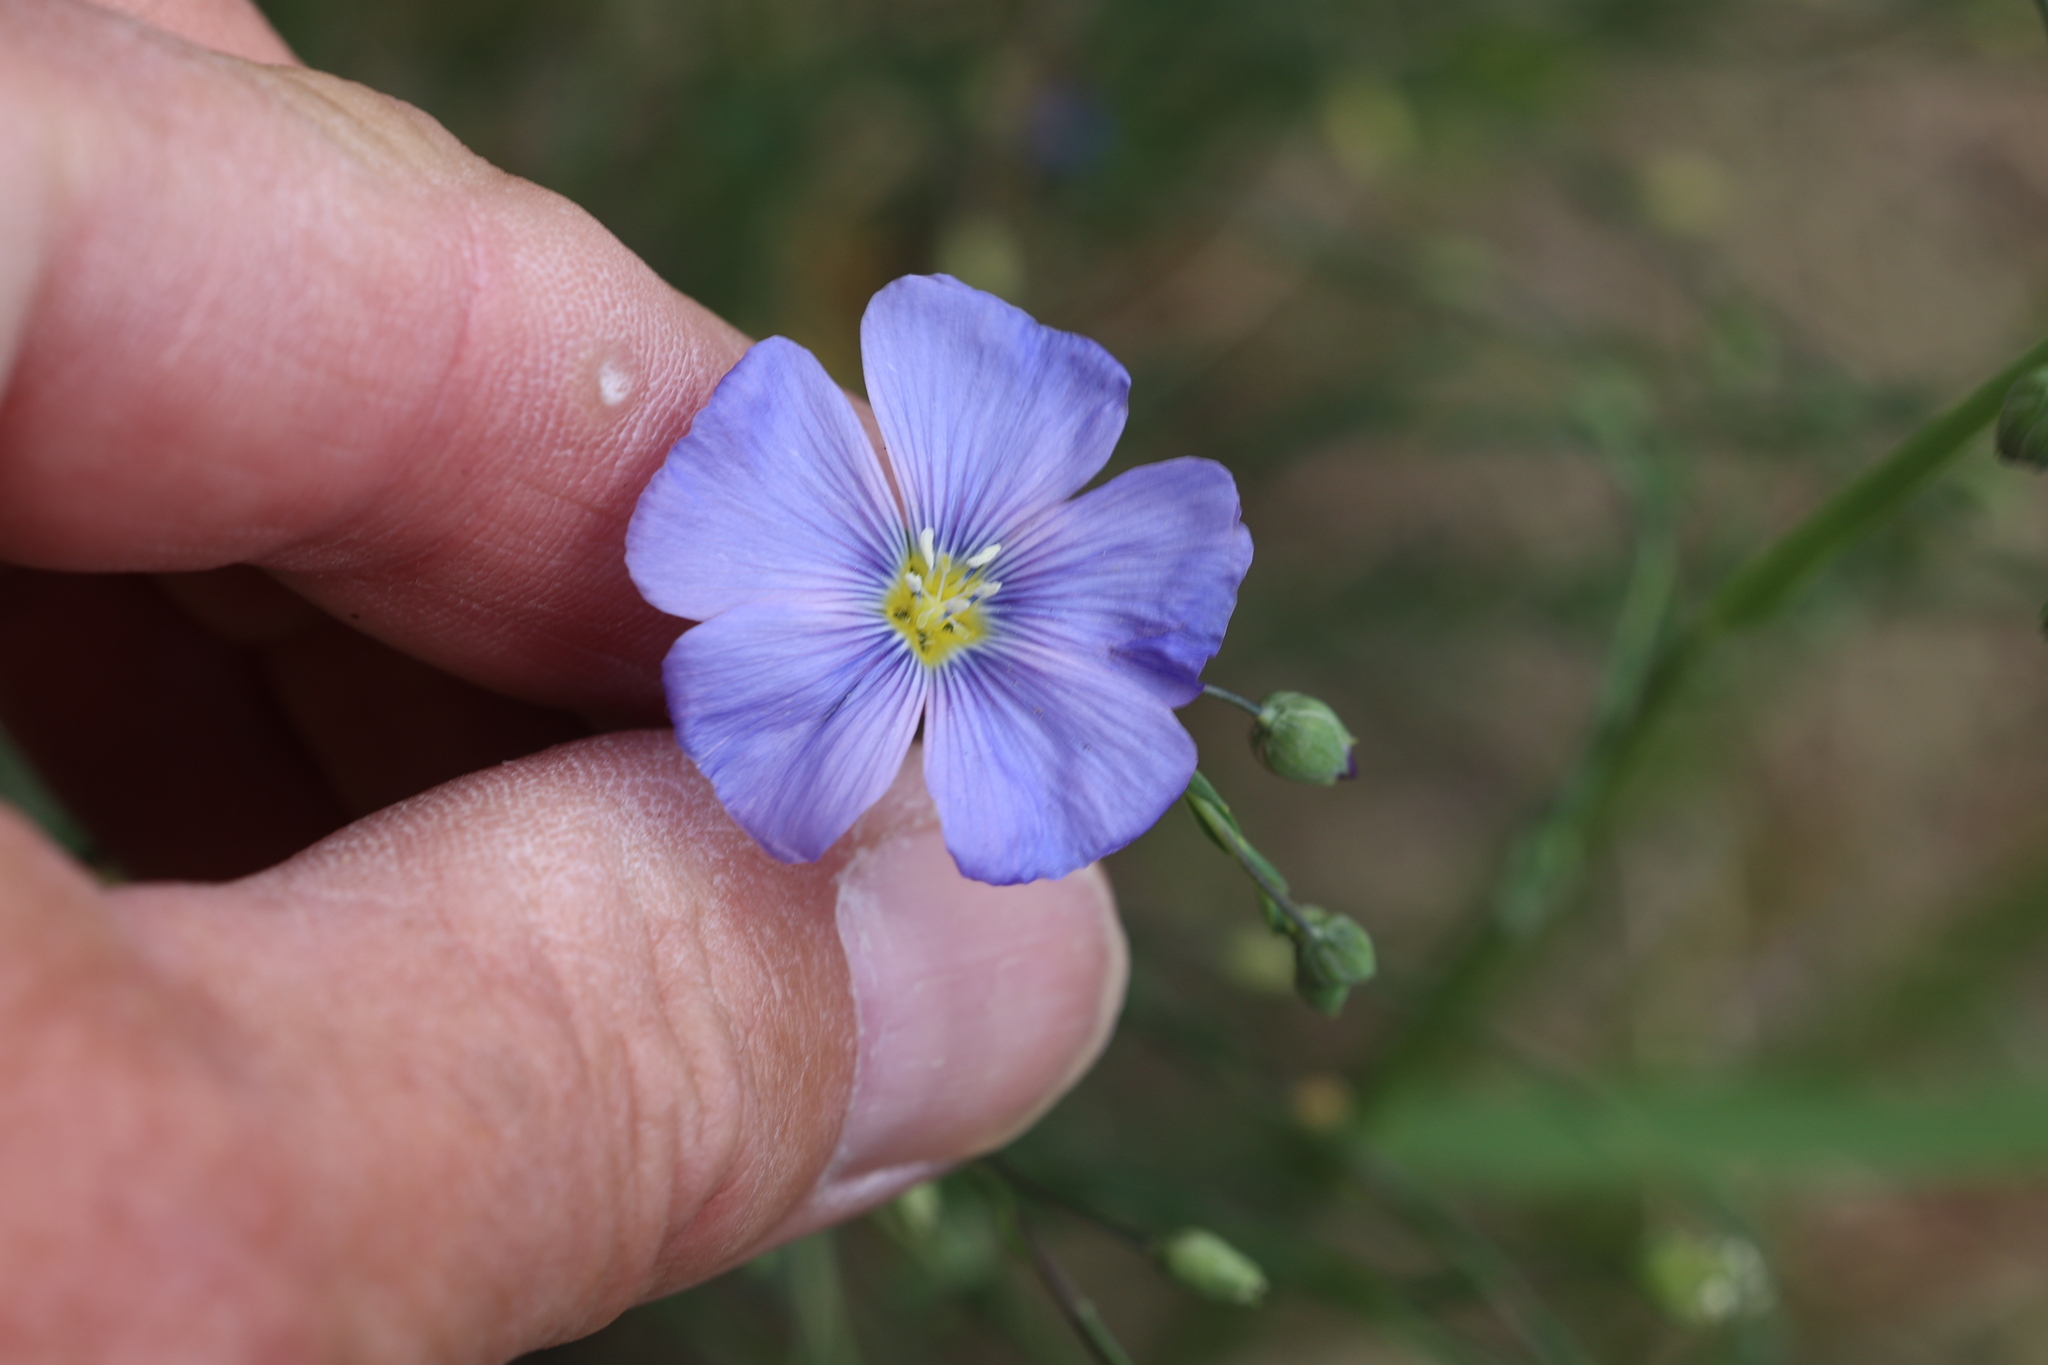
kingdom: Plantae
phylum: Tracheophyta
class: Magnoliopsida
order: Malpighiales
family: Linaceae
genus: Linum
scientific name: Linum lewisii
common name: Prairie flax
